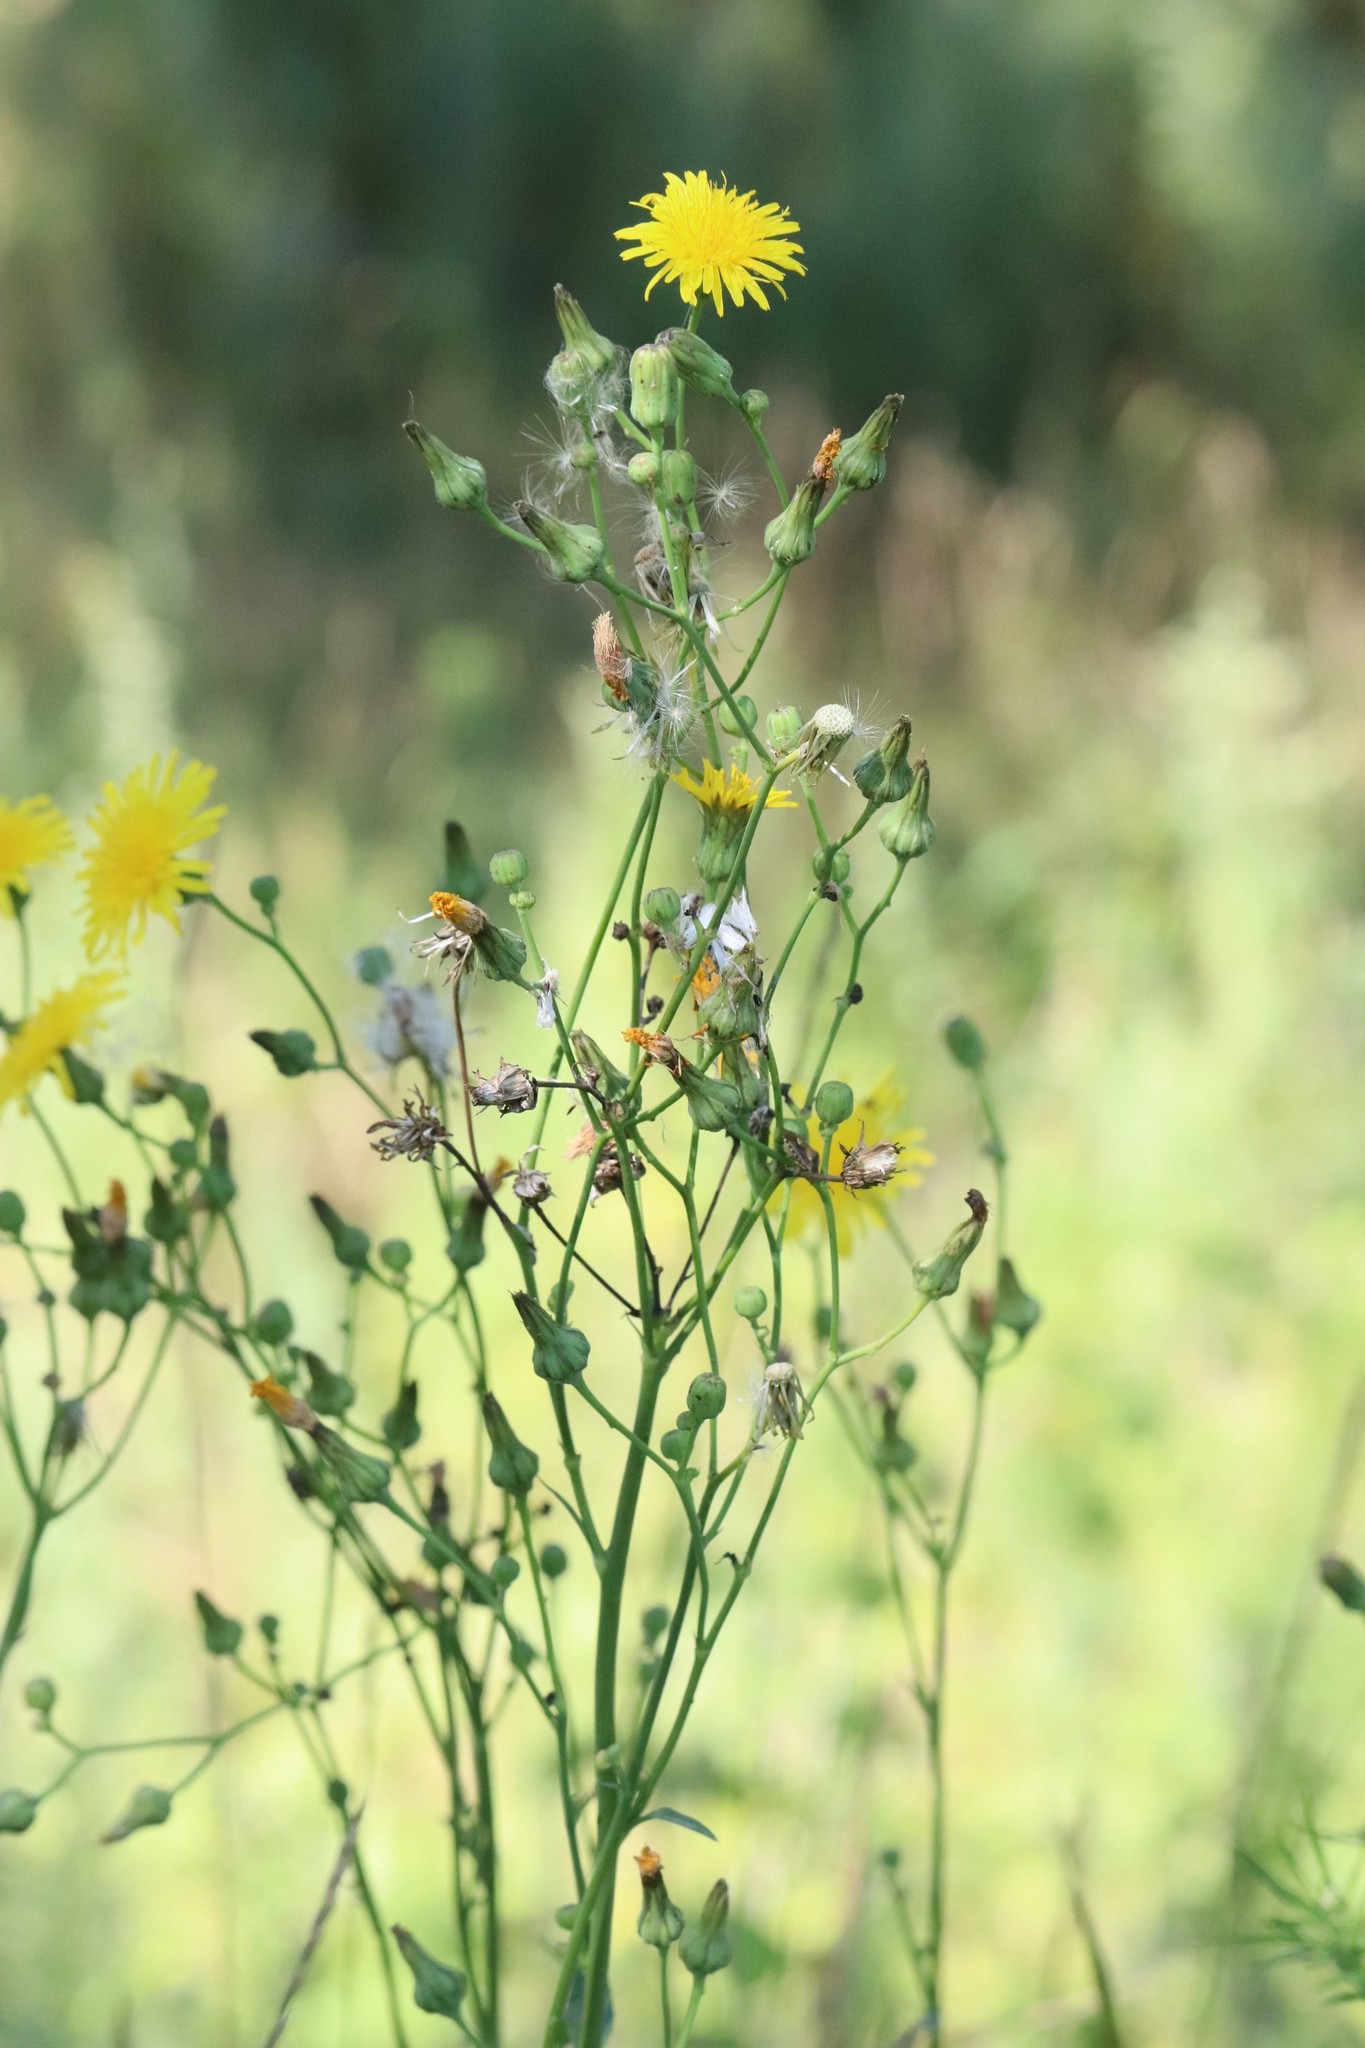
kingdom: Plantae
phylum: Tracheophyta
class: Magnoliopsida
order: Asterales
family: Asteraceae
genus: Sonchus
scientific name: Sonchus arvensis
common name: Perennial sow-thistle
